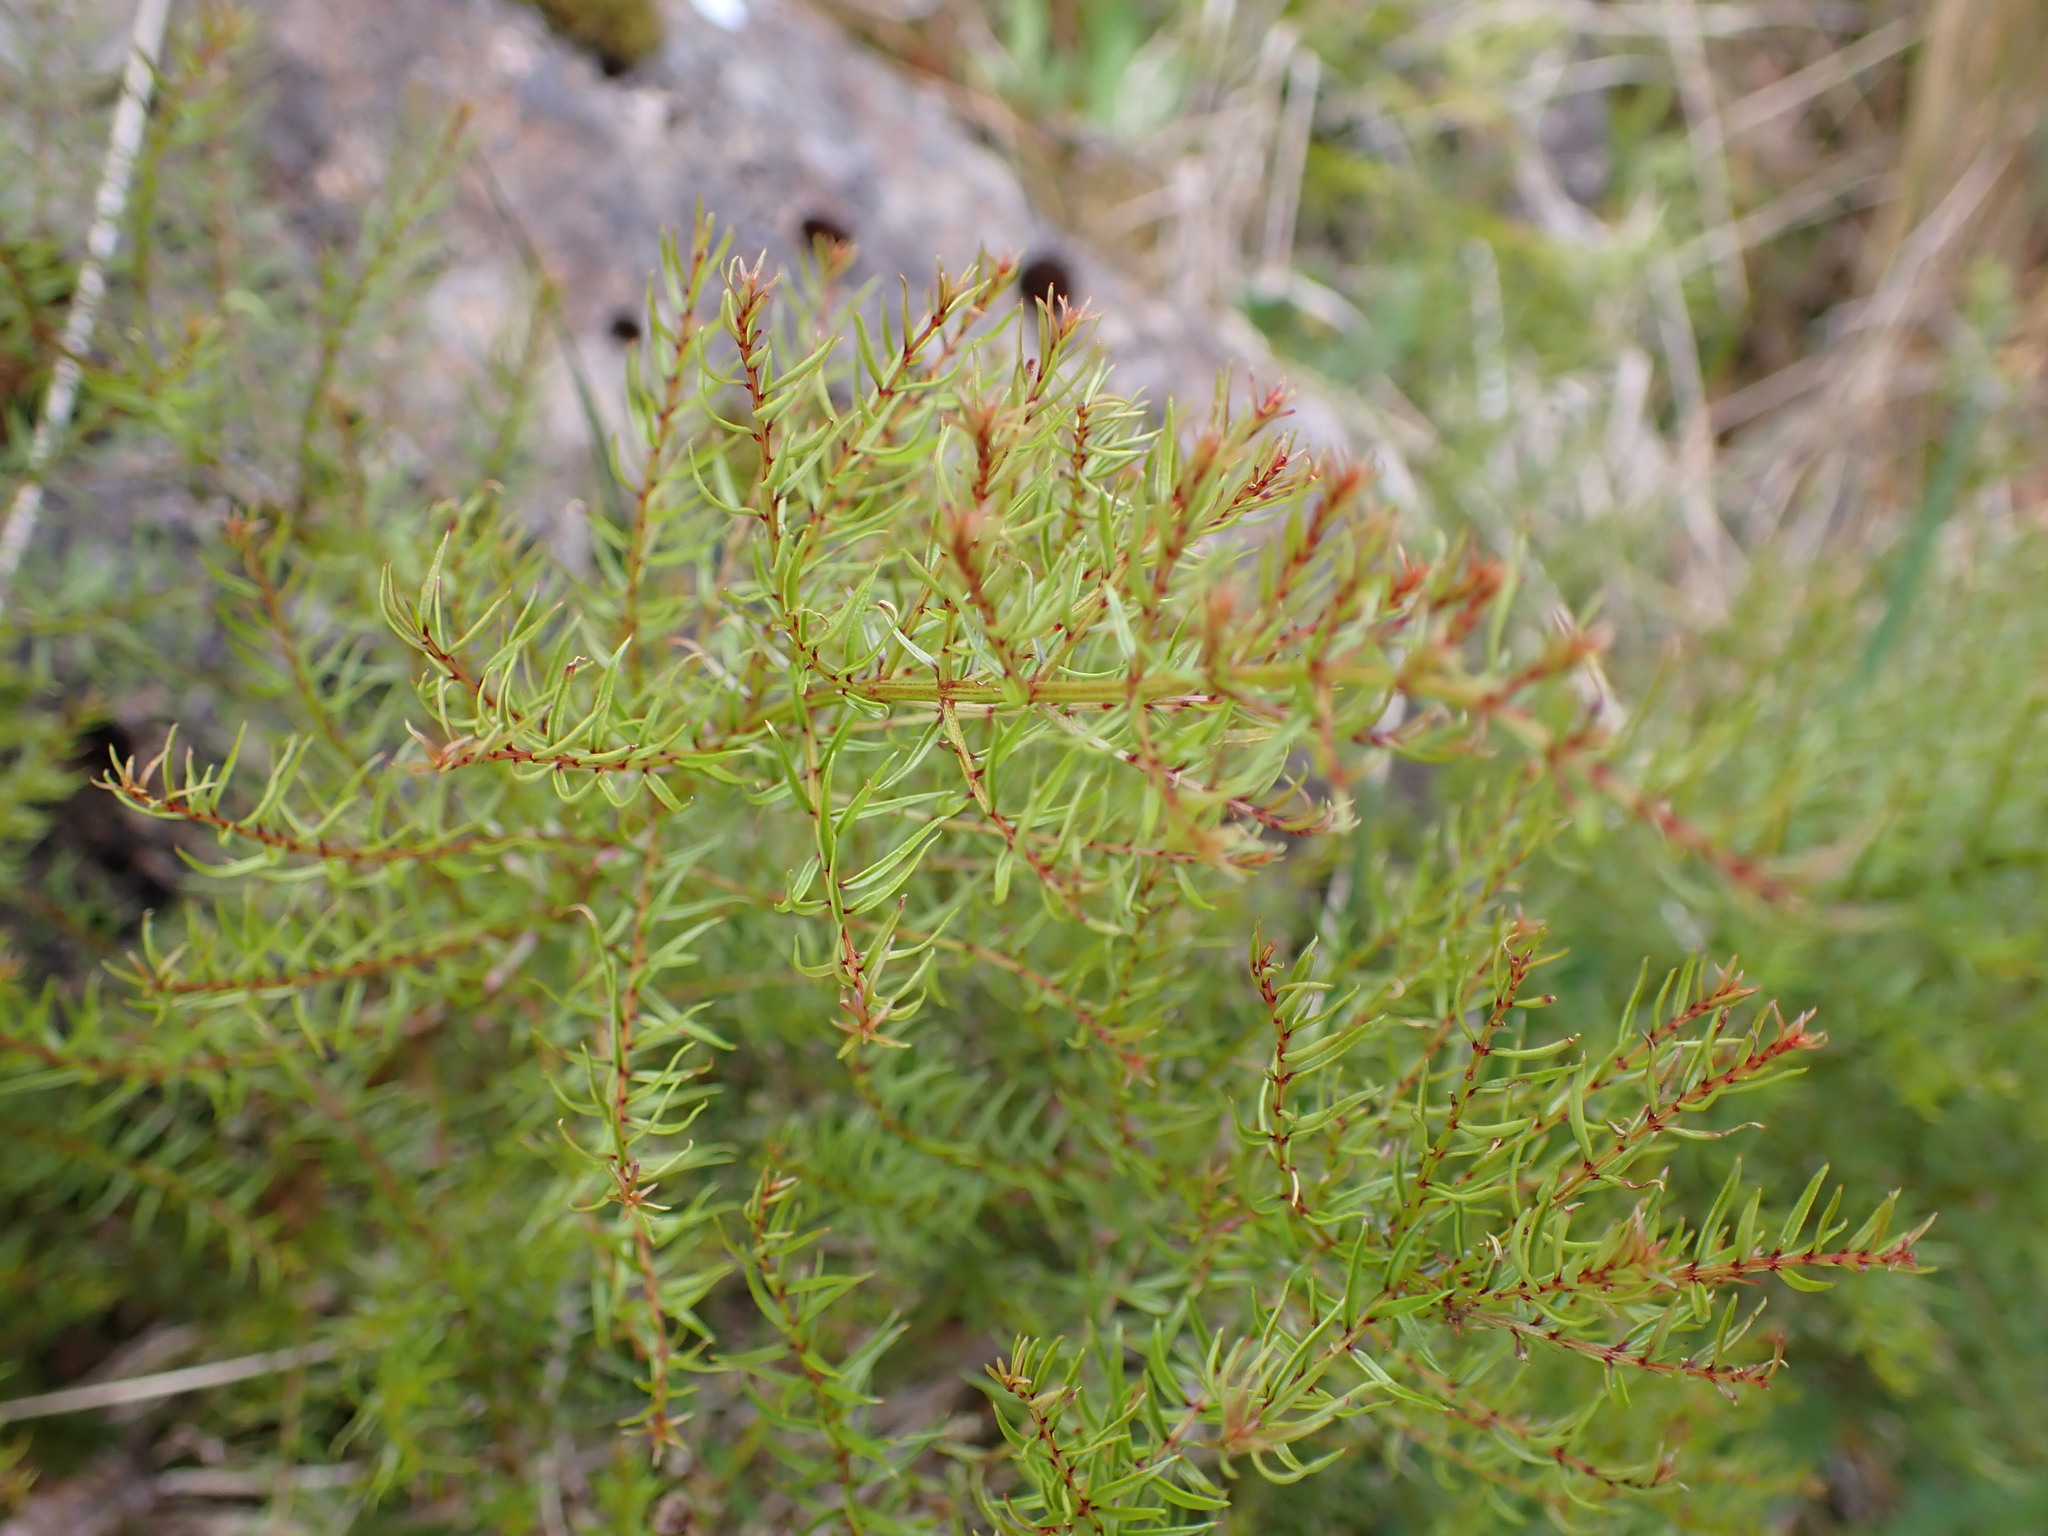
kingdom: Plantae
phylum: Tracheophyta
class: Magnoliopsida
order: Cucurbitales
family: Coriariaceae
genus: Coriaria
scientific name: Coriaria angustissima
